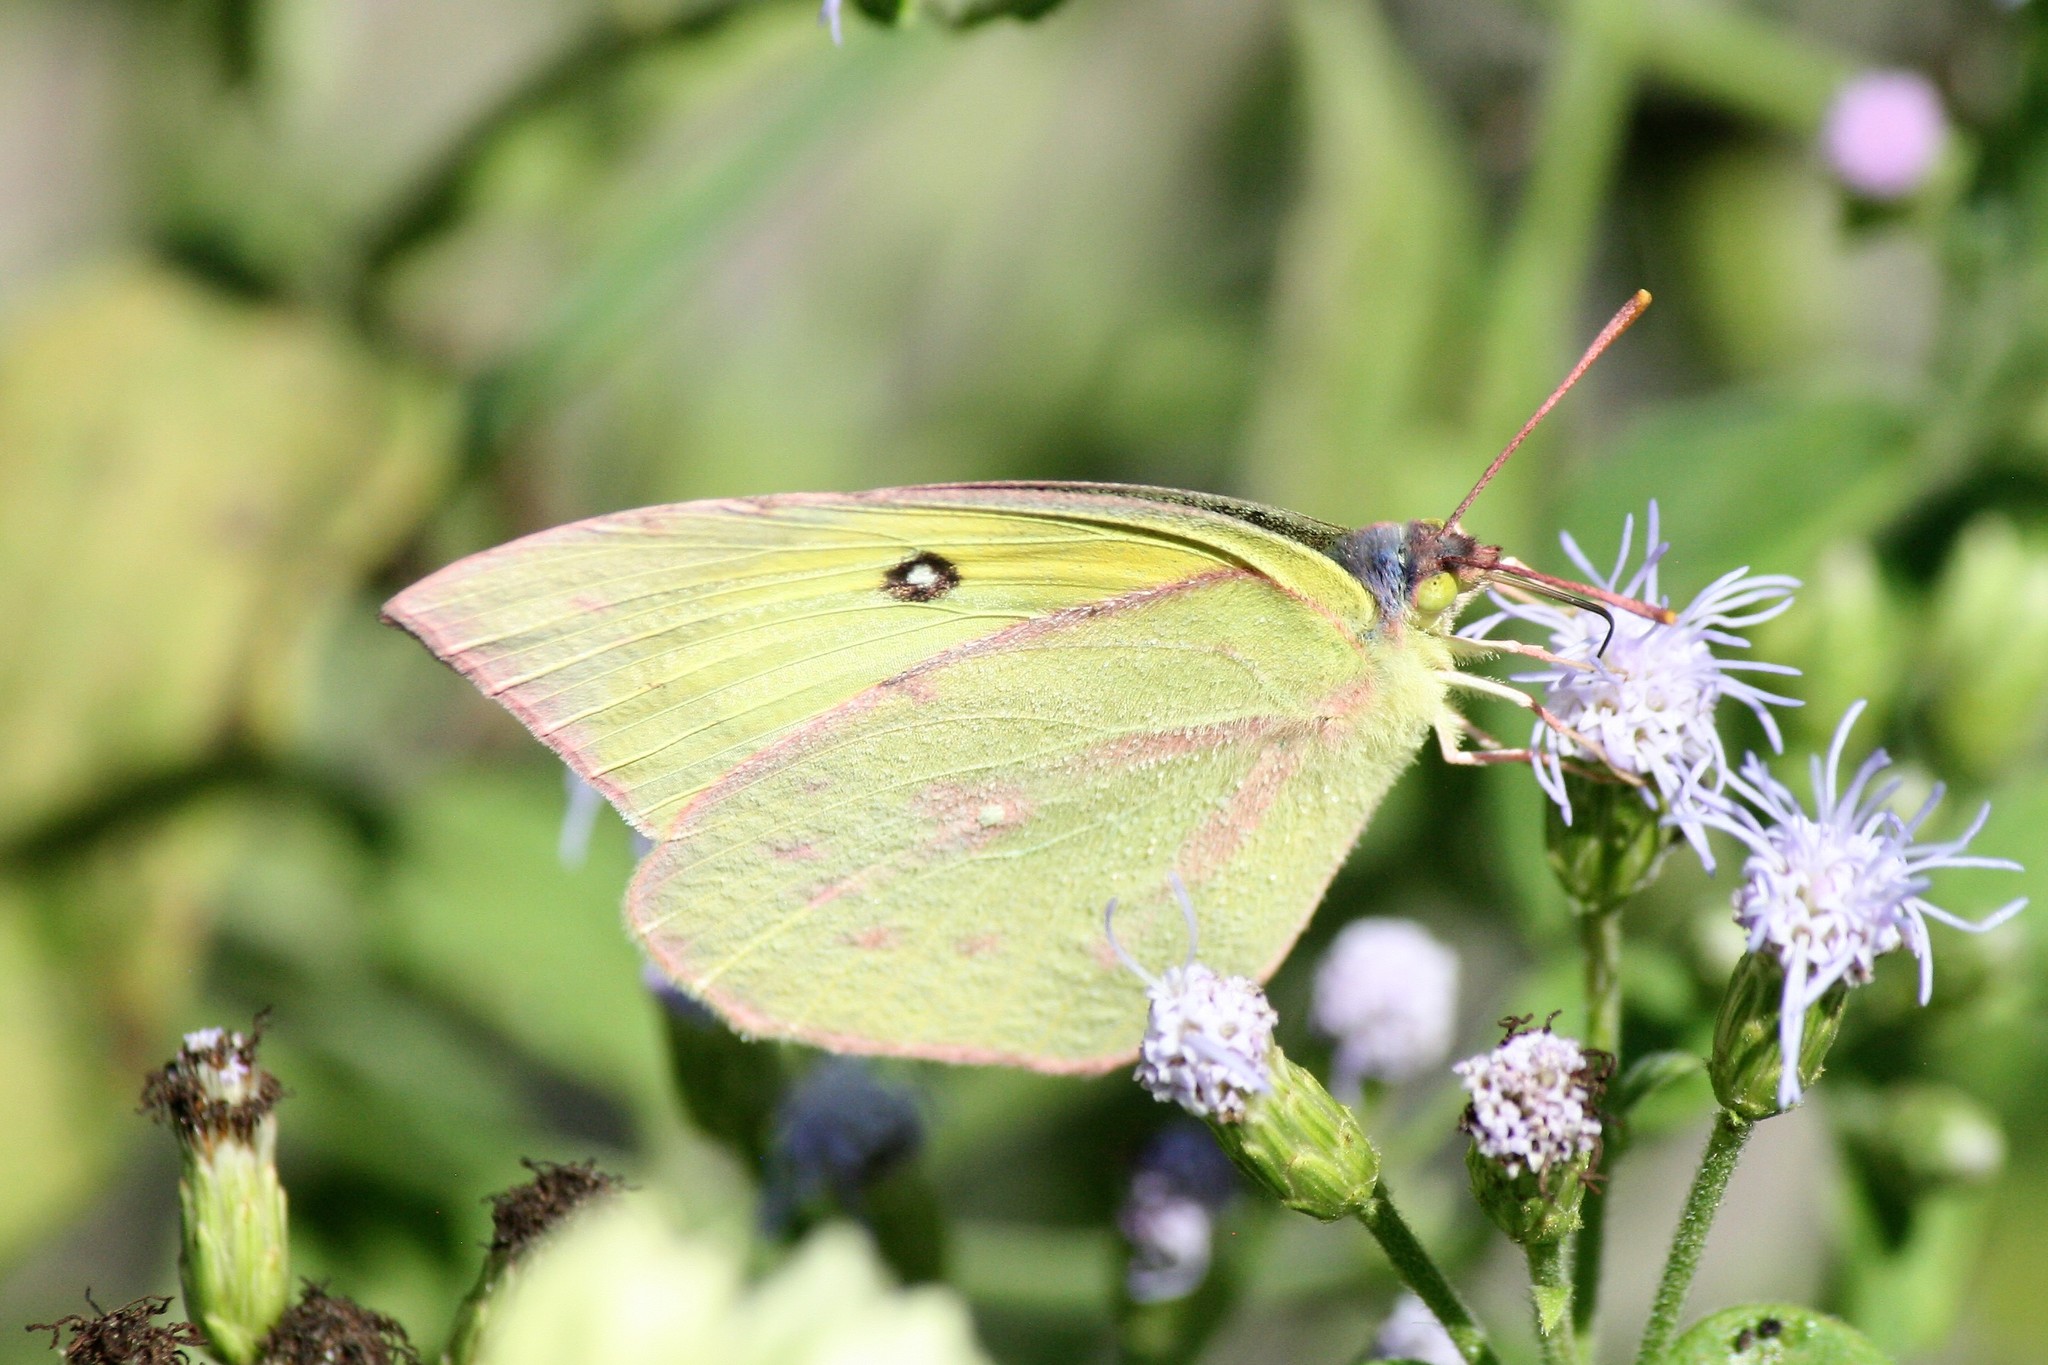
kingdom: Animalia
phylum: Arthropoda
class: Insecta
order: Lepidoptera
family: Pieridae
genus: Zerene
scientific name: Zerene cesonia
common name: Southern dogface
